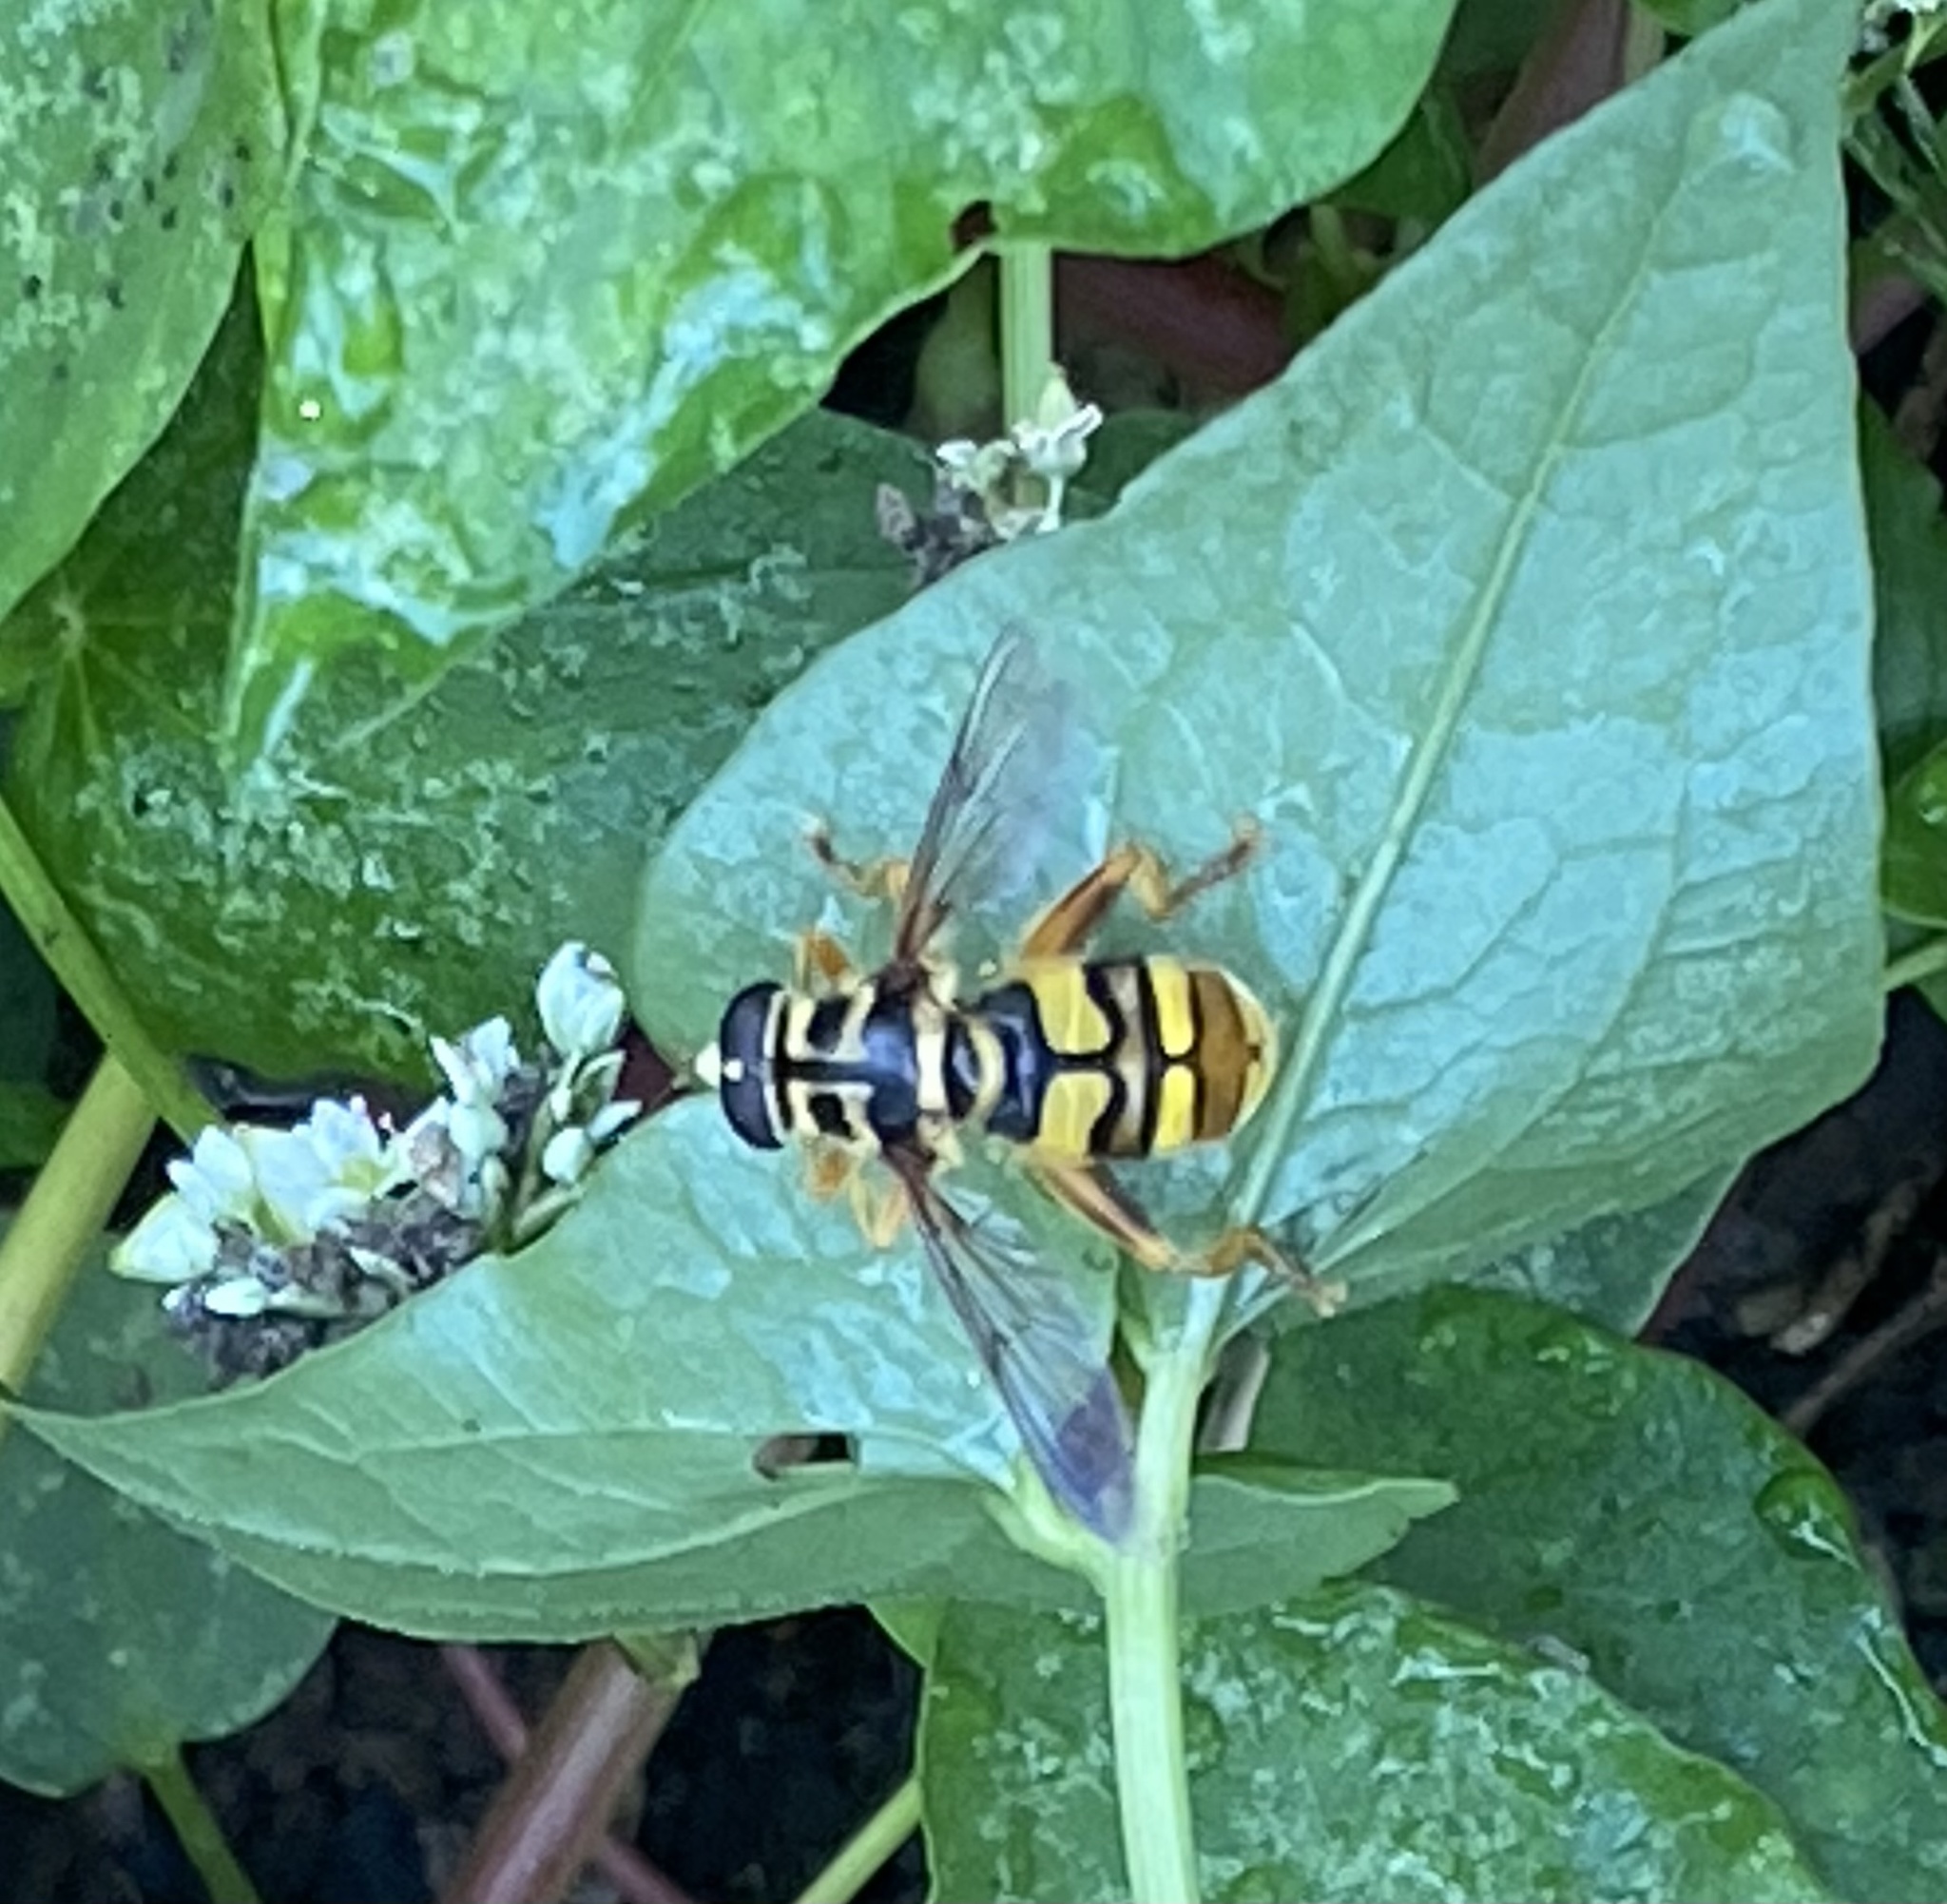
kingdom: Animalia
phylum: Arthropoda
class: Insecta
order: Diptera
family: Syrphidae
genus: Milesia
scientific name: Milesia virginiensis
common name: Virginia giant
